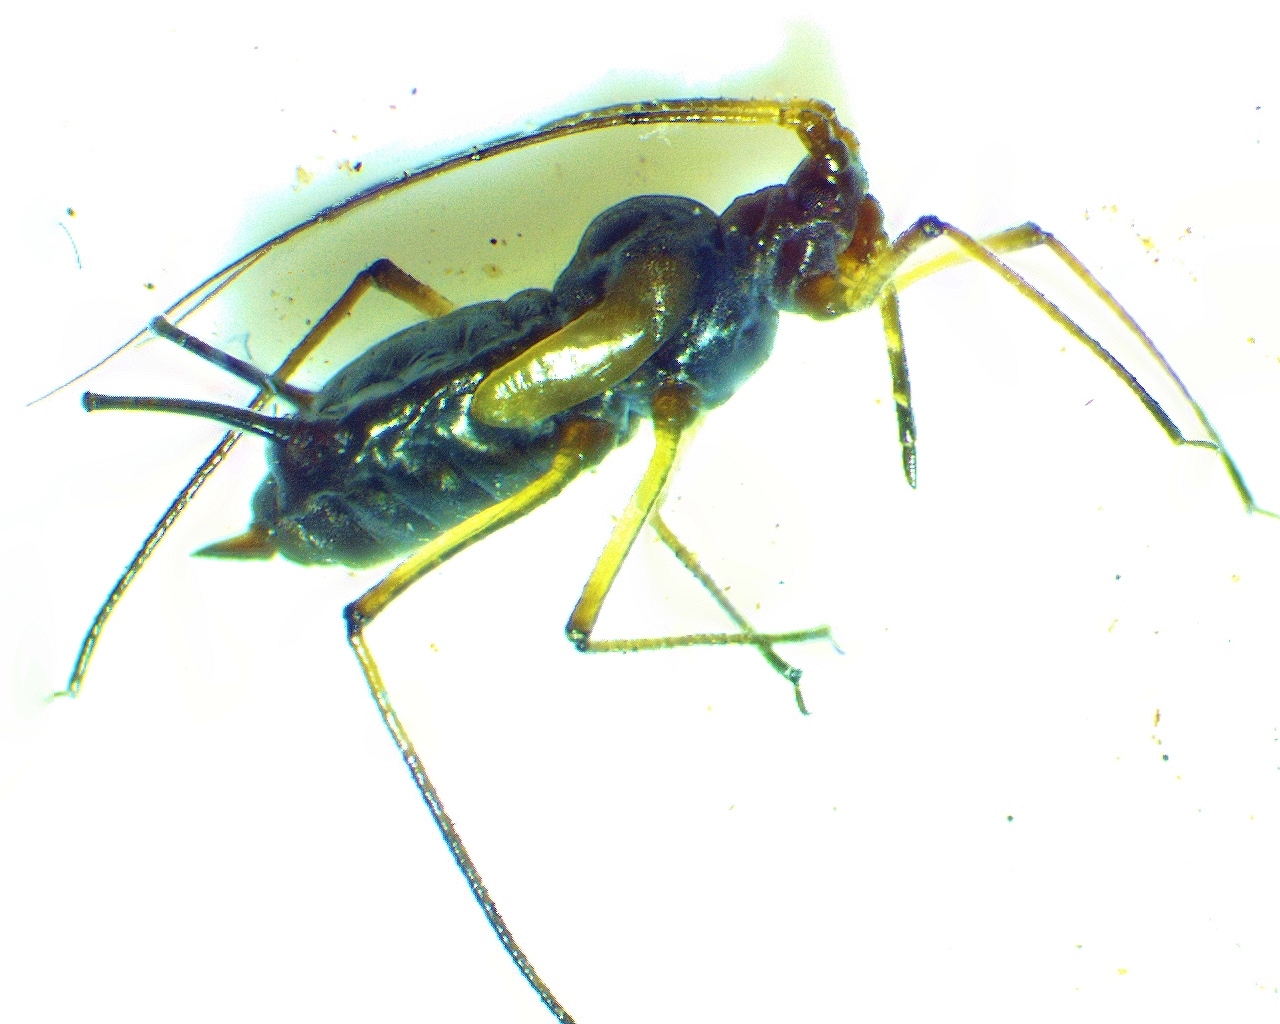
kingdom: Animalia
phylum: Arthropoda
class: Insecta
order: Hemiptera
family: Aphididae
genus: Uroleucon
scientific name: Uroleucon rurale
